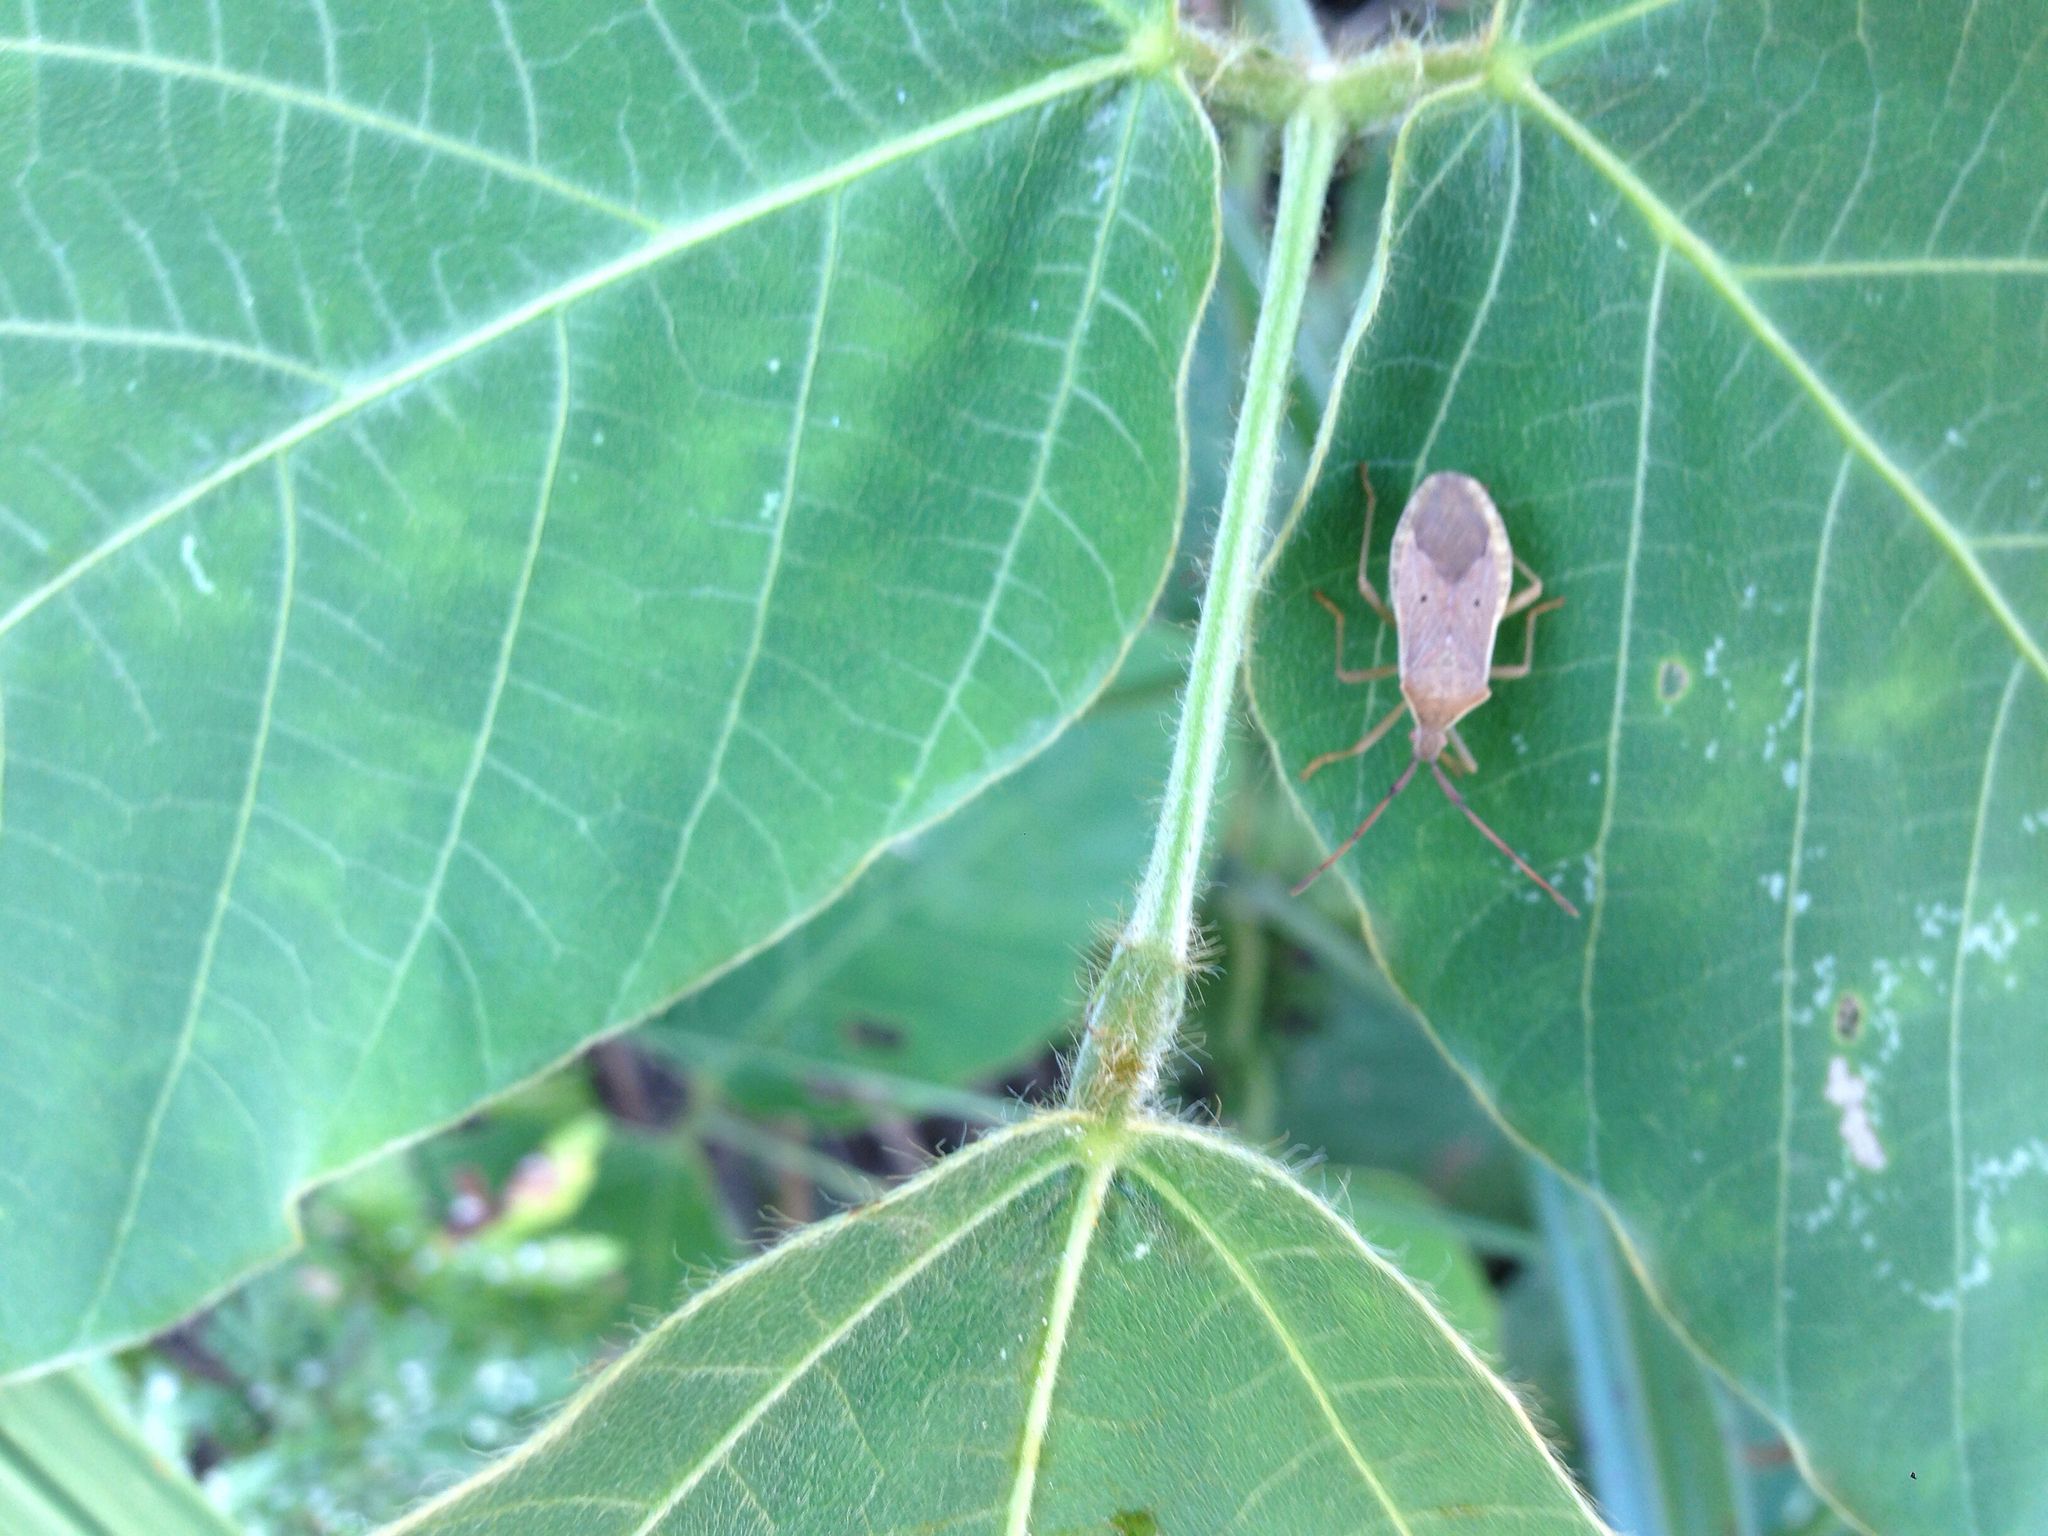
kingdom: Animalia
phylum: Arthropoda
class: Insecta
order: Hemiptera
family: Coreidae
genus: Homoeocerus
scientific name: Homoeocerus unipunctatus
